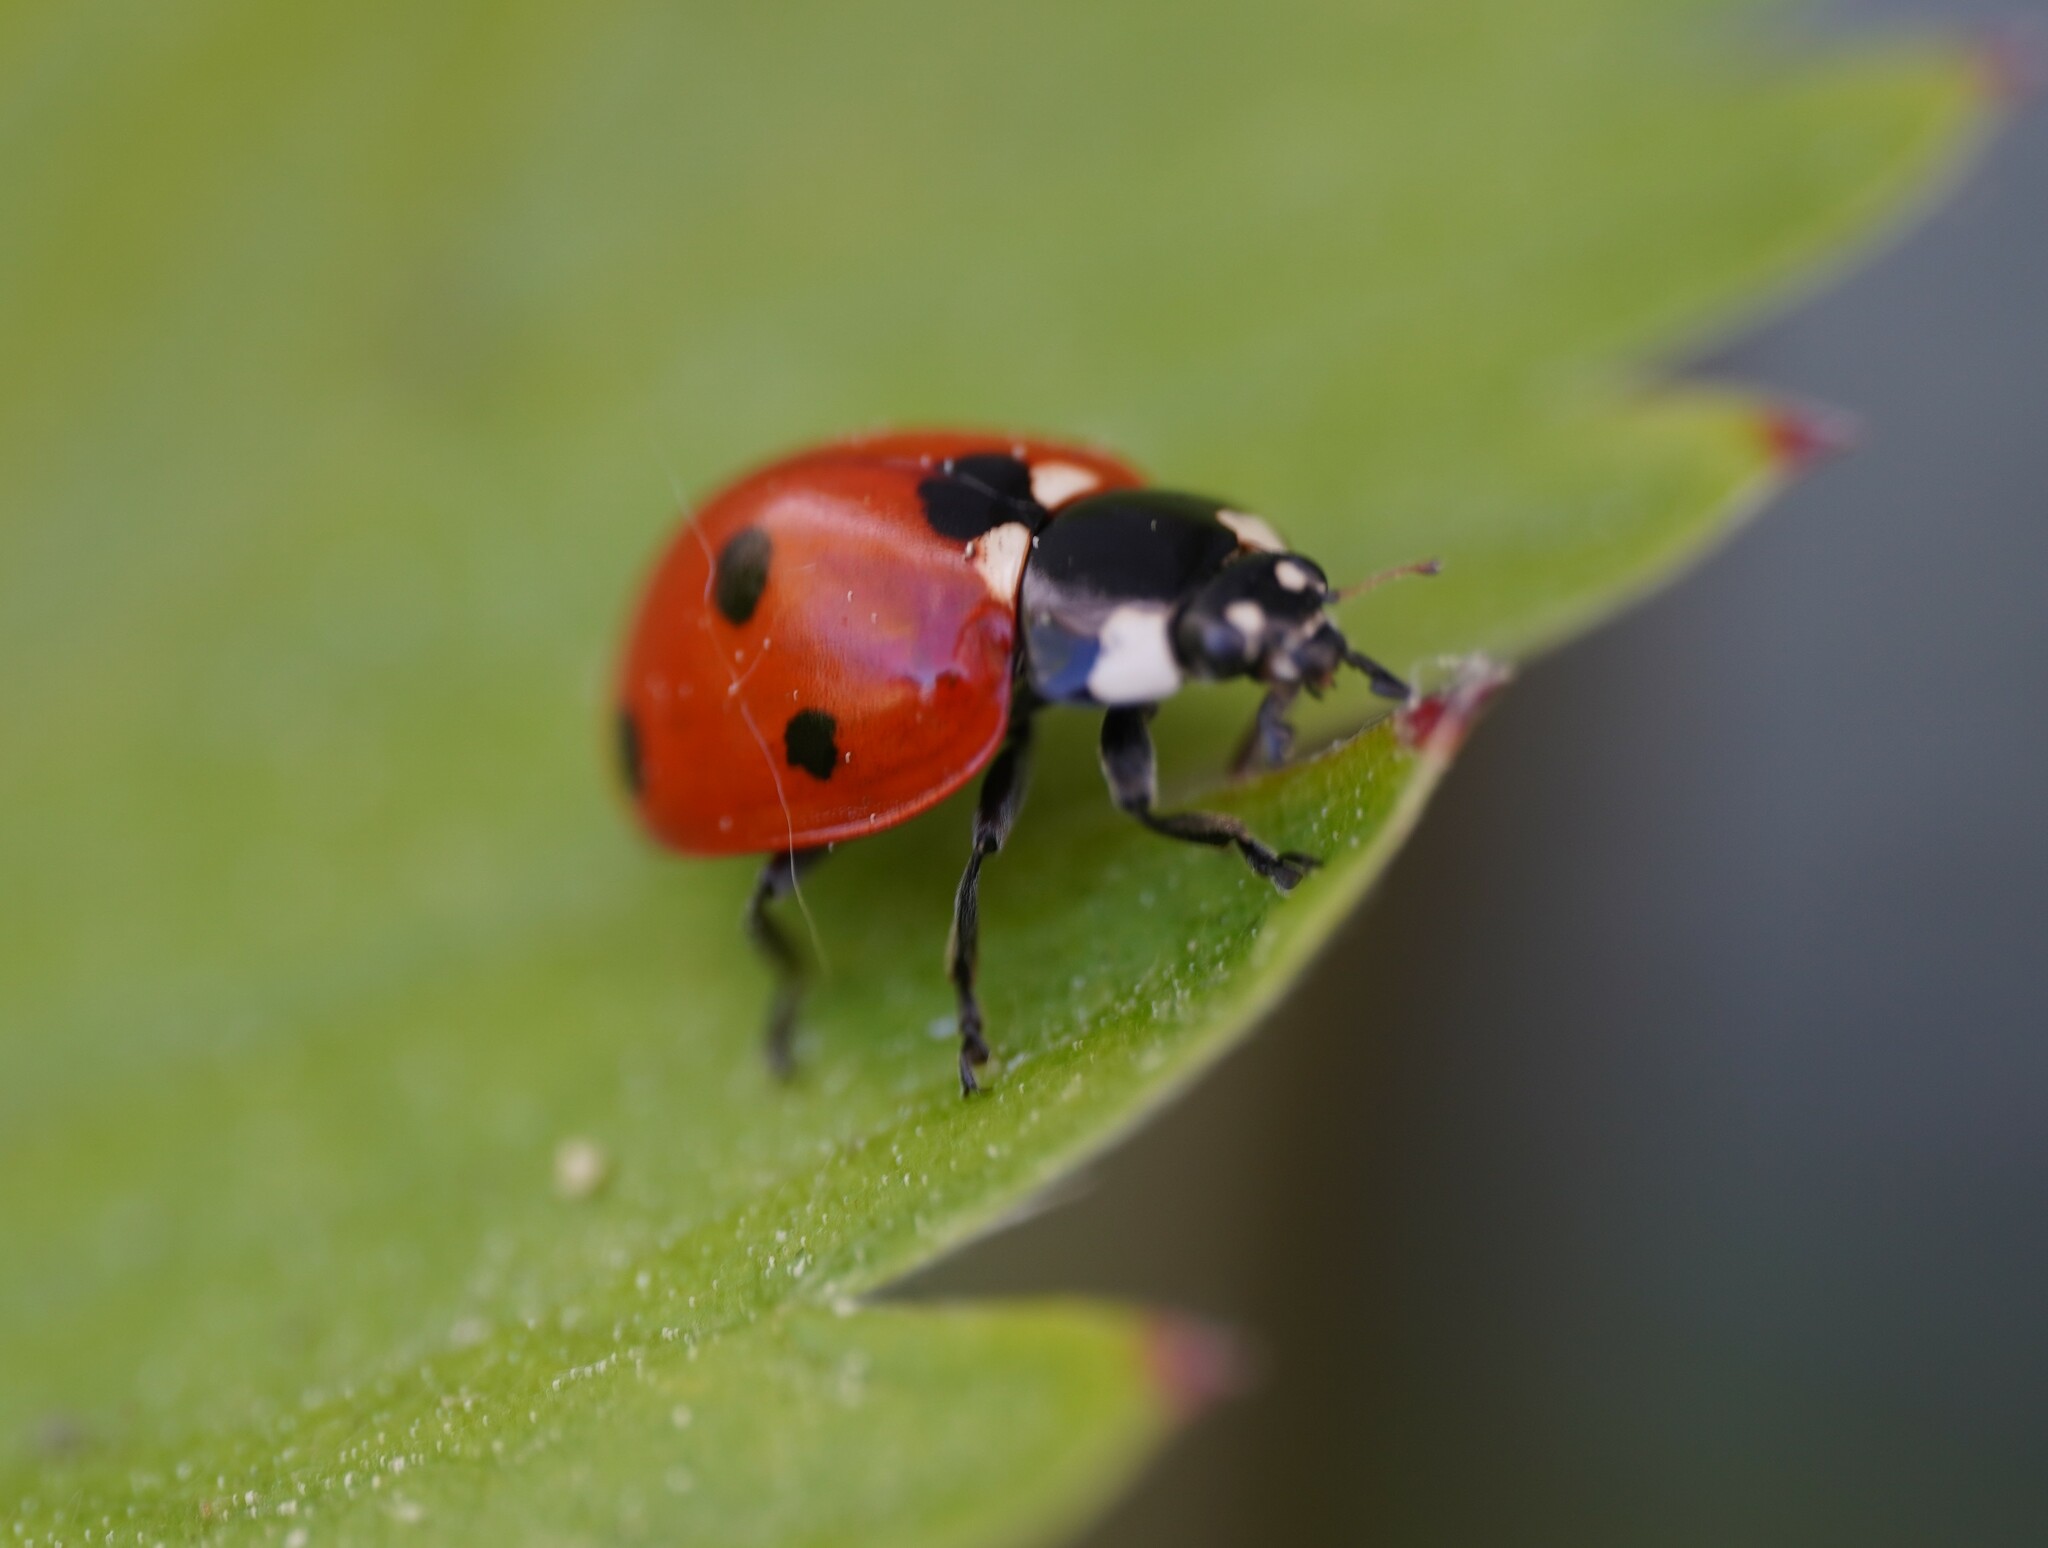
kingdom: Animalia
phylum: Arthropoda
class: Insecta
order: Coleoptera
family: Coccinellidae
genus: Coccinella
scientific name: Coccinella septempunctata
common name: Sevenspotted lady beetle
